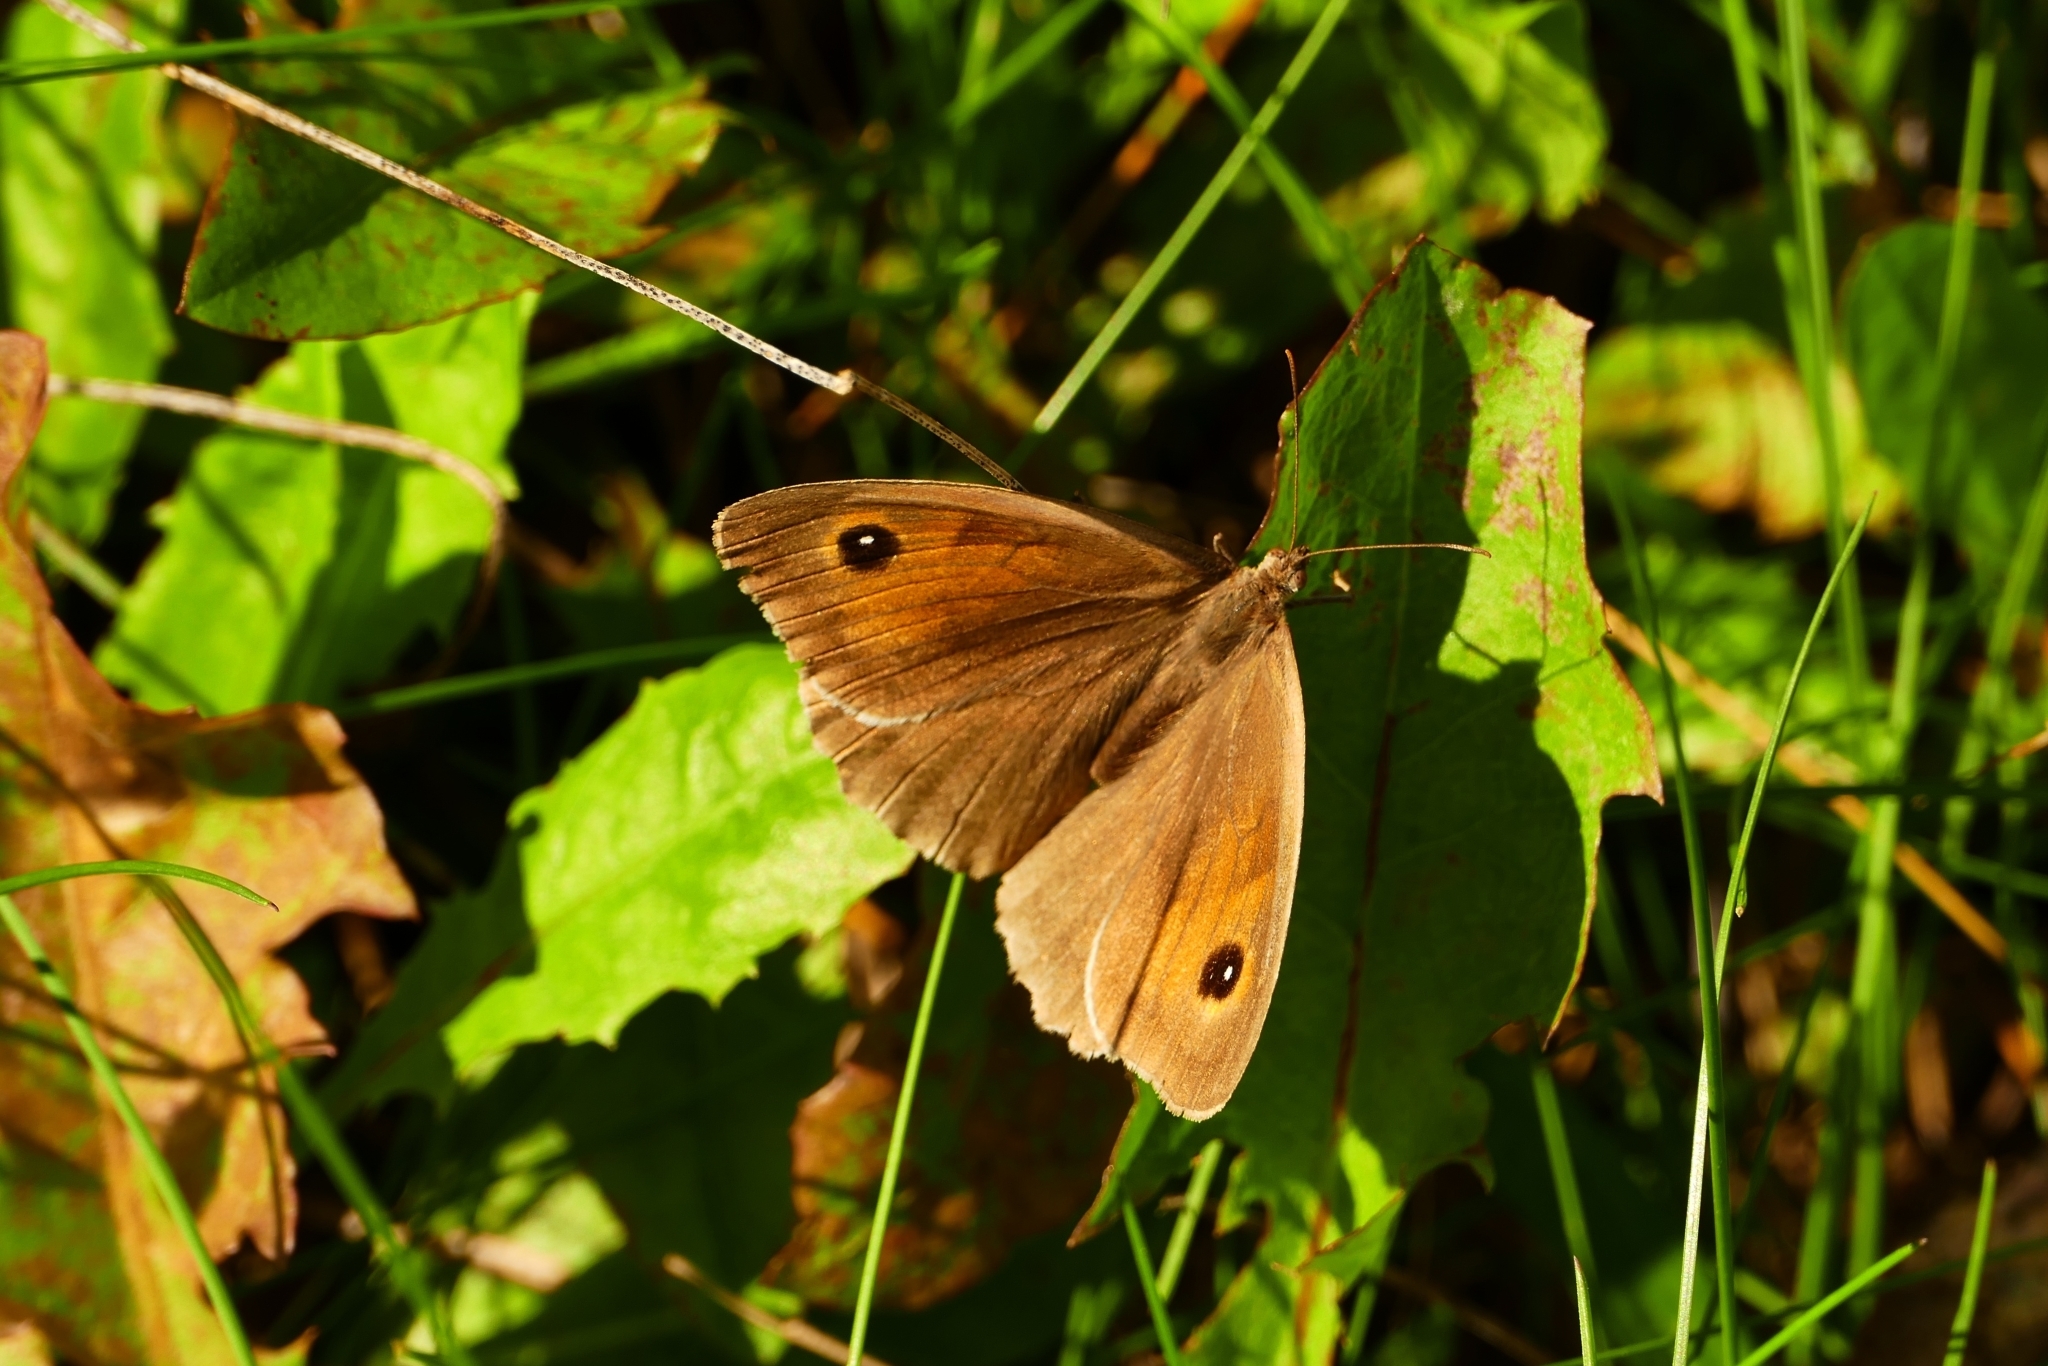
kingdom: Animalia
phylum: Arthropoda
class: Insecta
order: Lepidoptera
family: Nymphalidae
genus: Maniola
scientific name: Maniola jurtina
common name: Meadow brown
